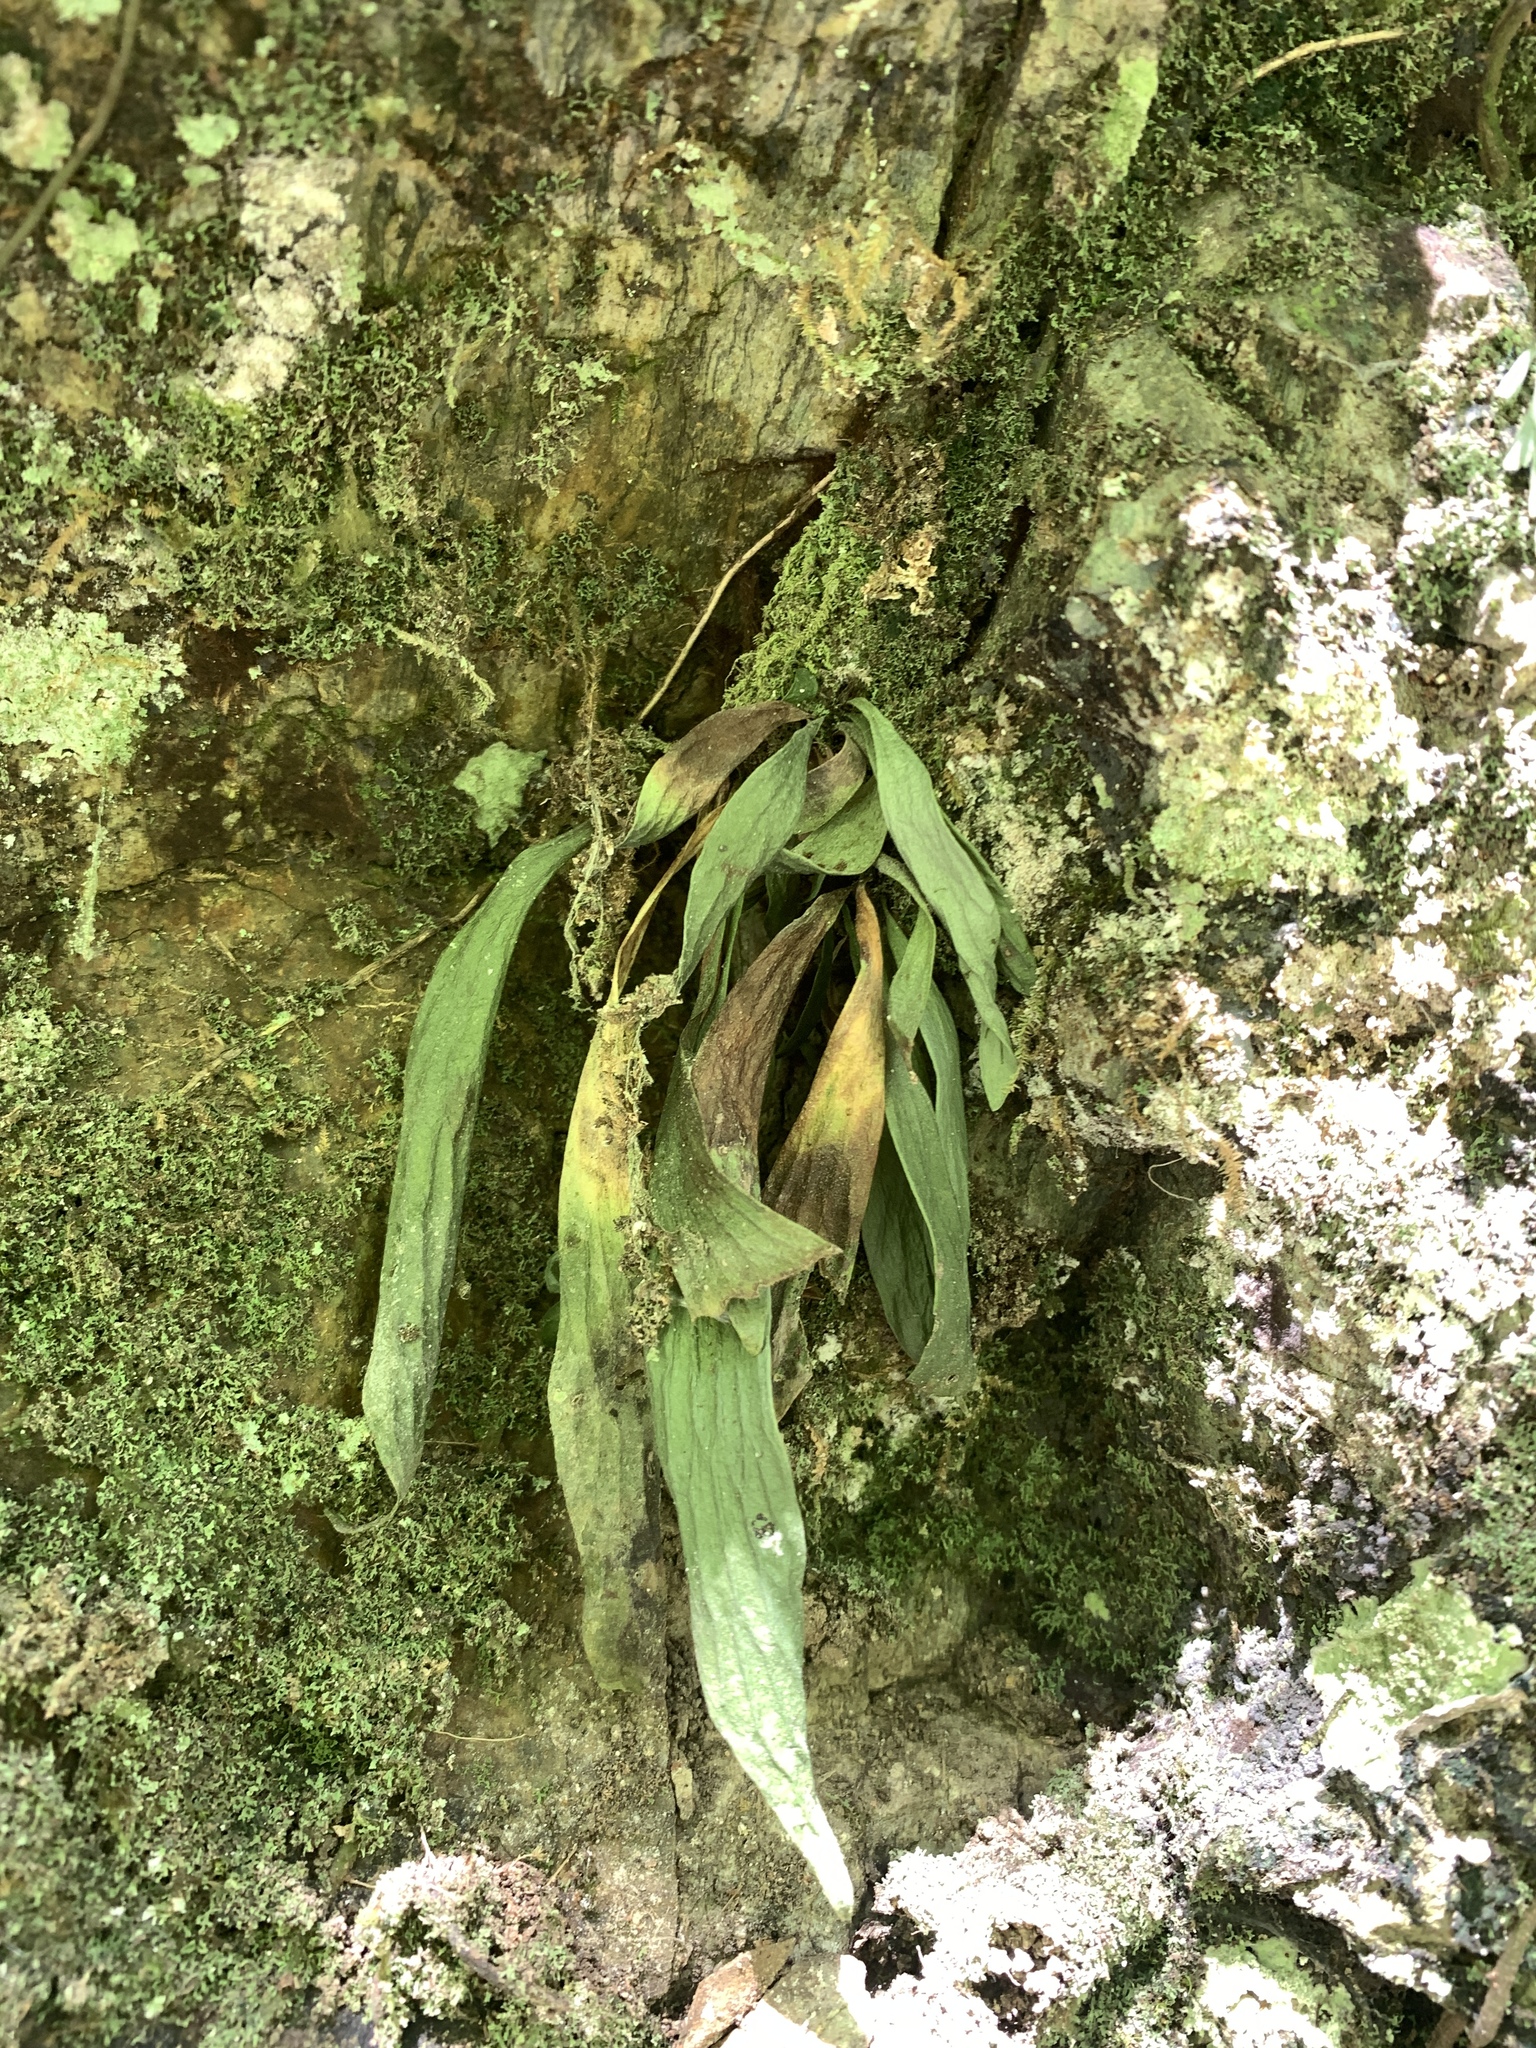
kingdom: Plantae
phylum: Tracheophyta
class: Polypodiopsida
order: Polypodiales
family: Pteridaceae
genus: Antrophyum
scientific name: Antrophyum formosanum
